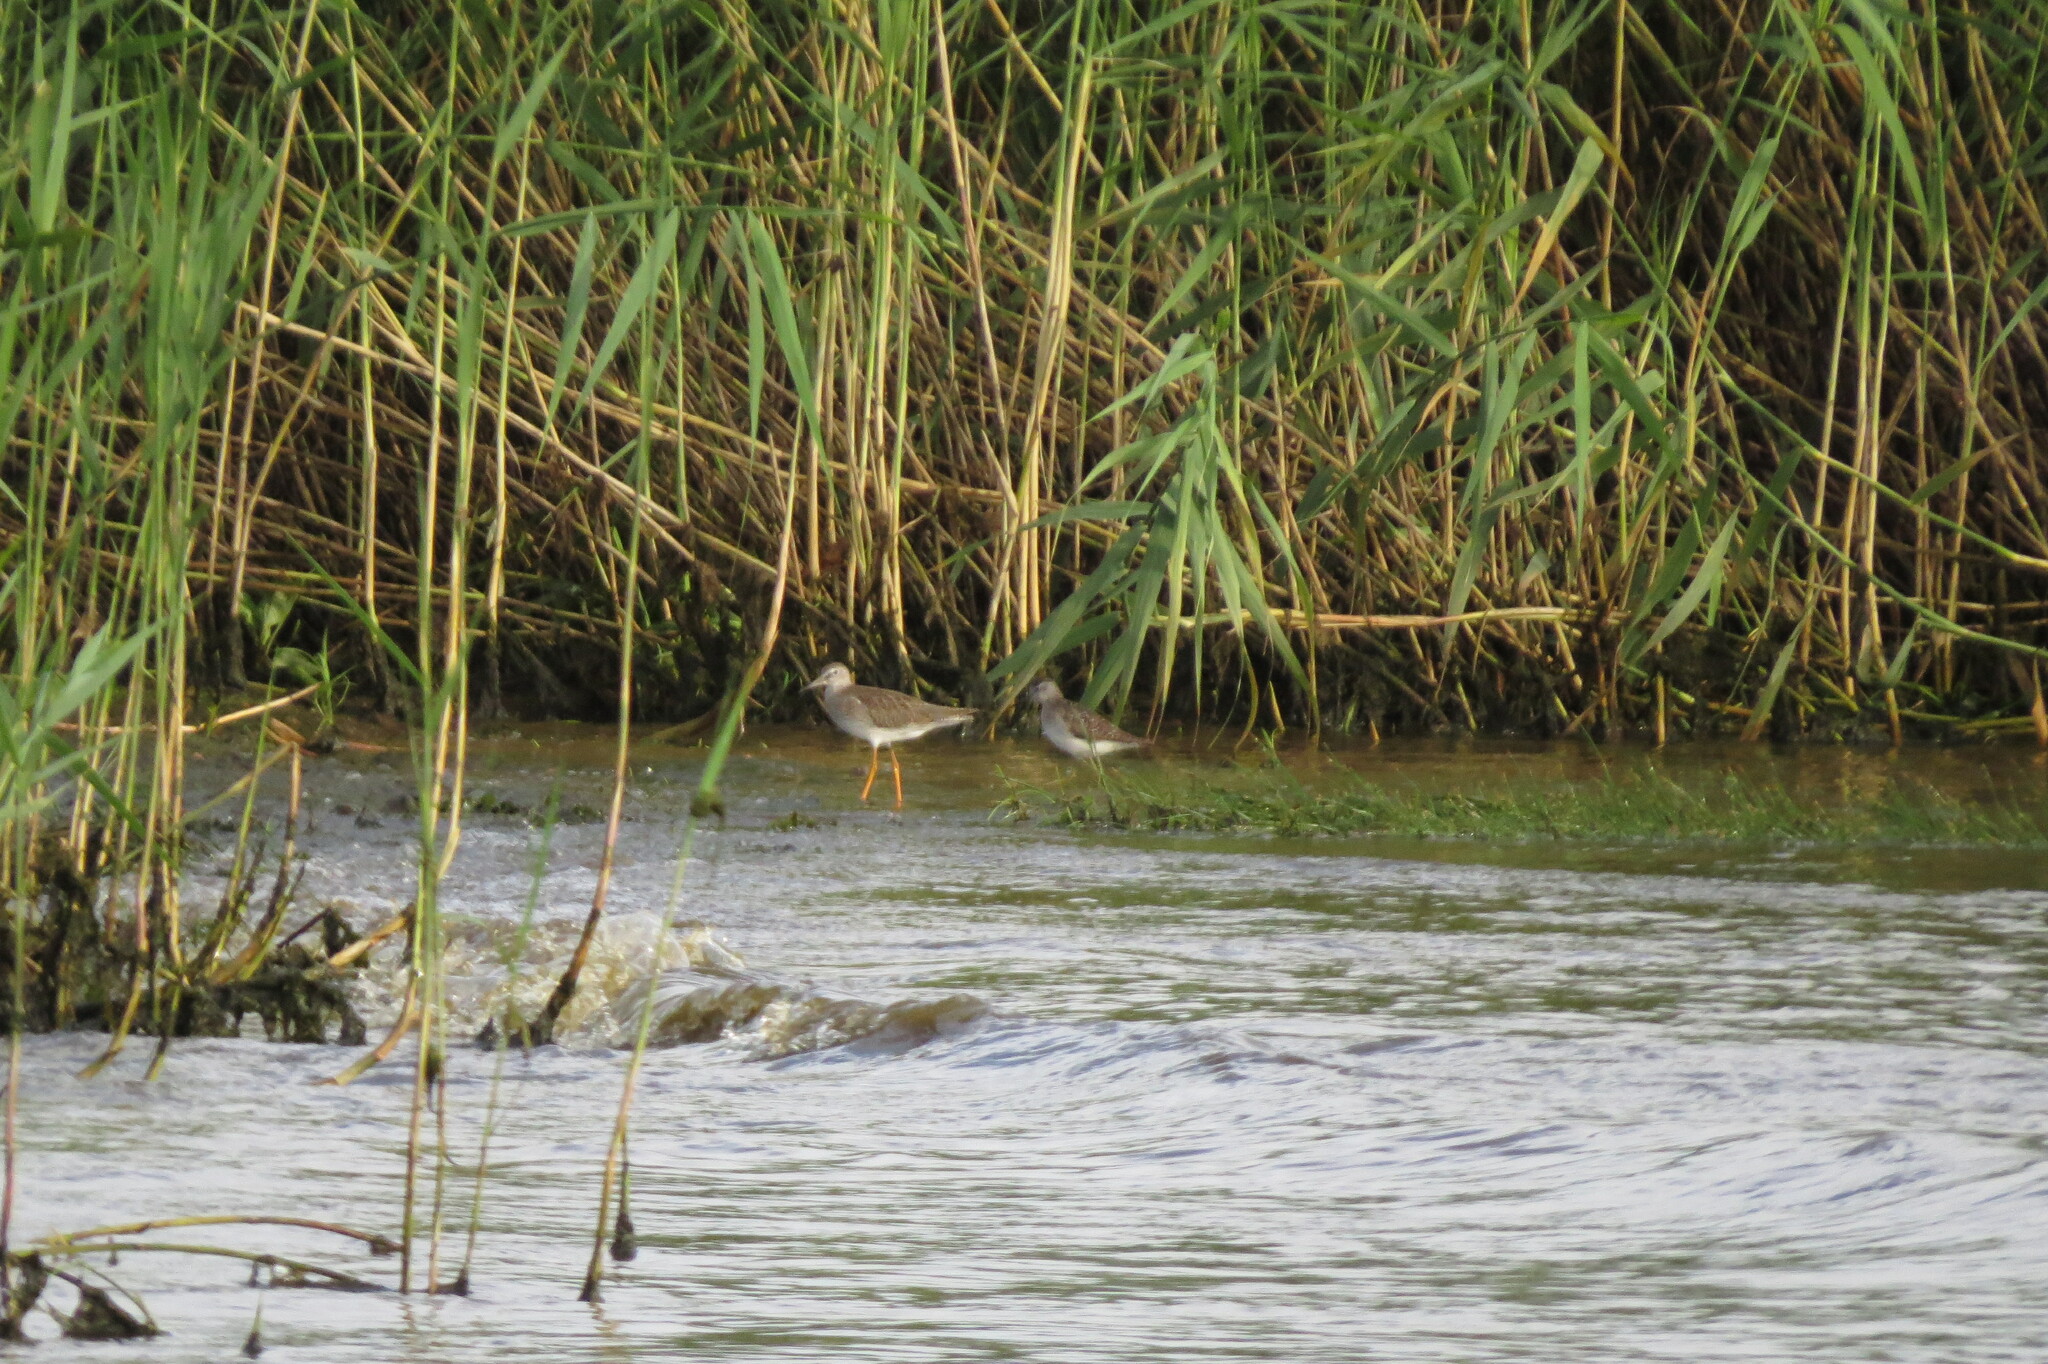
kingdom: Animalia
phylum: Chordata
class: Aves
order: Charadriiformes
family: Scolopacidae
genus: Tringa
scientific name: Tringa totanus
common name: Common redshank
